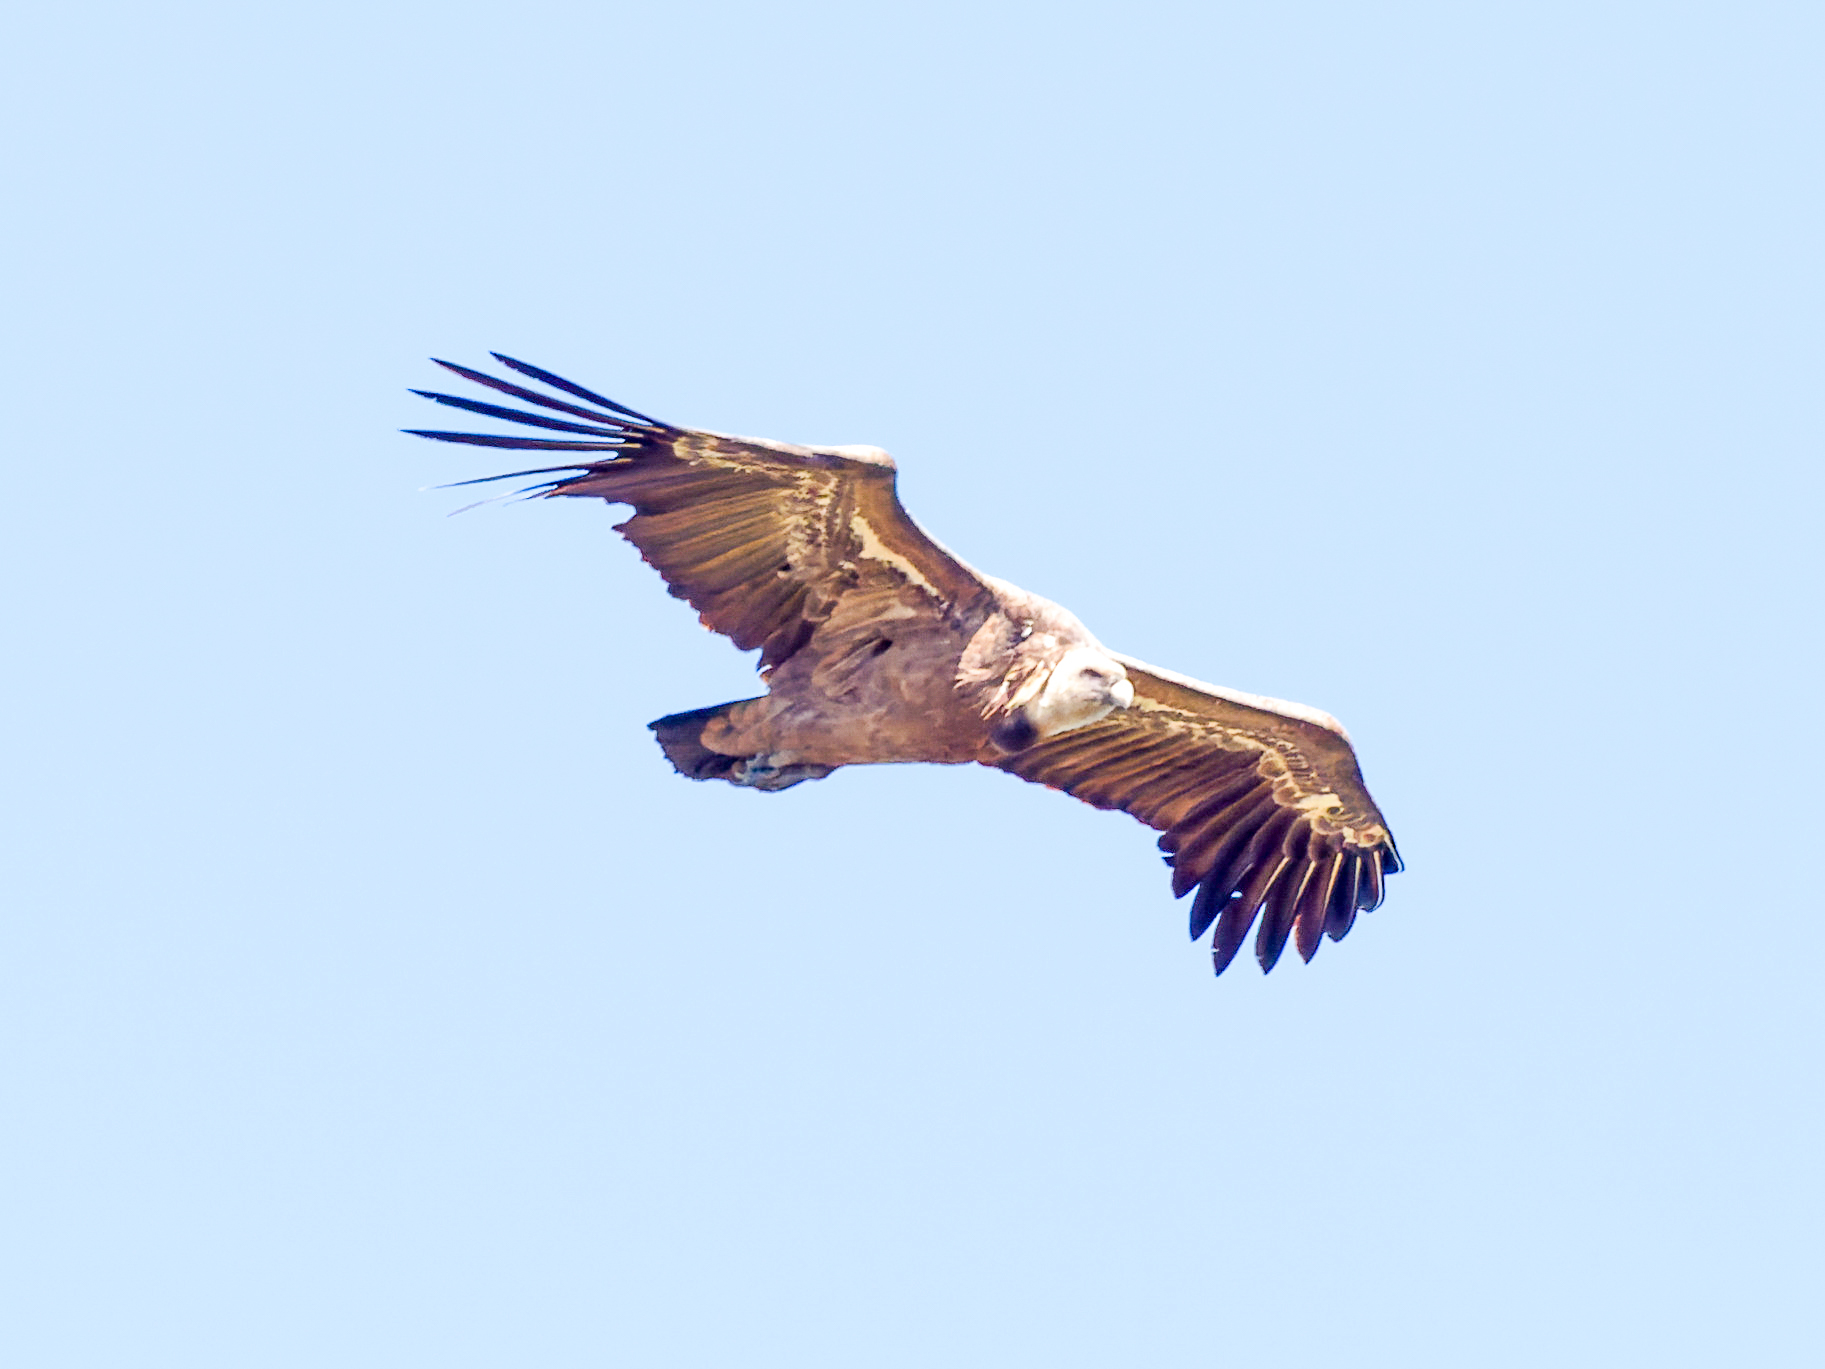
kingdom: Animalia
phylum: Chordata
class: Aves
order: Accipitriformes
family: Accipitridae
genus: Gyps
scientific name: Gyps fulvus
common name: Griffon vulture
